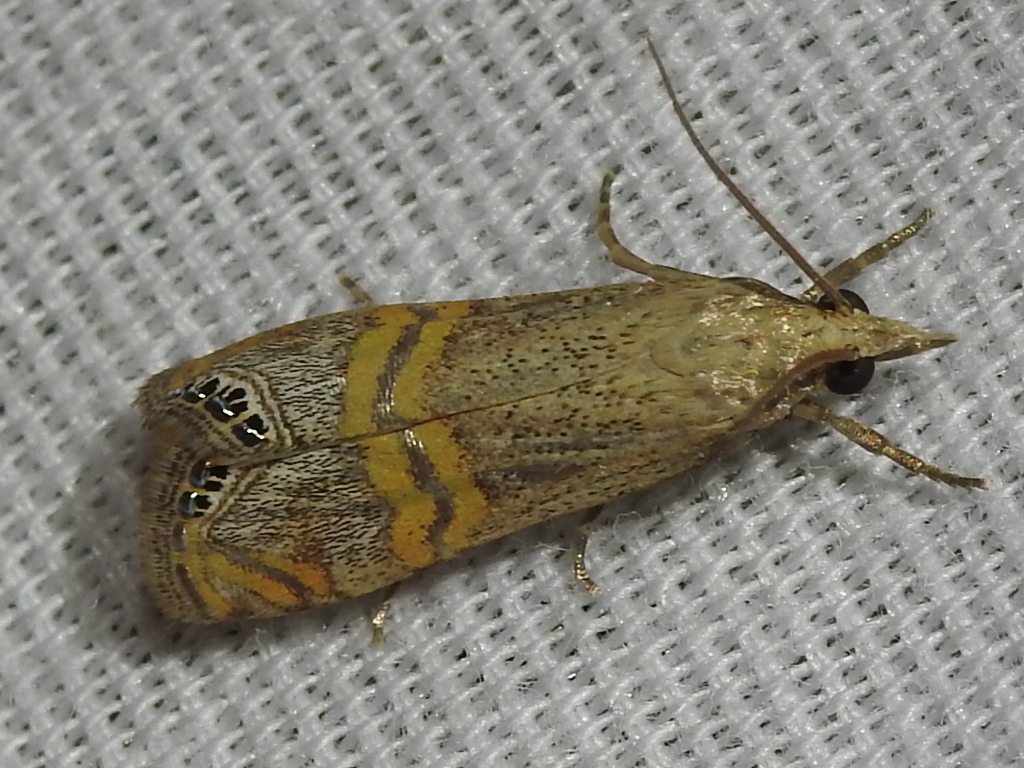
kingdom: Animalia
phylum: Arthropoda
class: Insecta
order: Lepidoptera
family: Crambidae
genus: Euchromius
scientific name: Euchromius ocellea
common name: Necklace veneer moth
